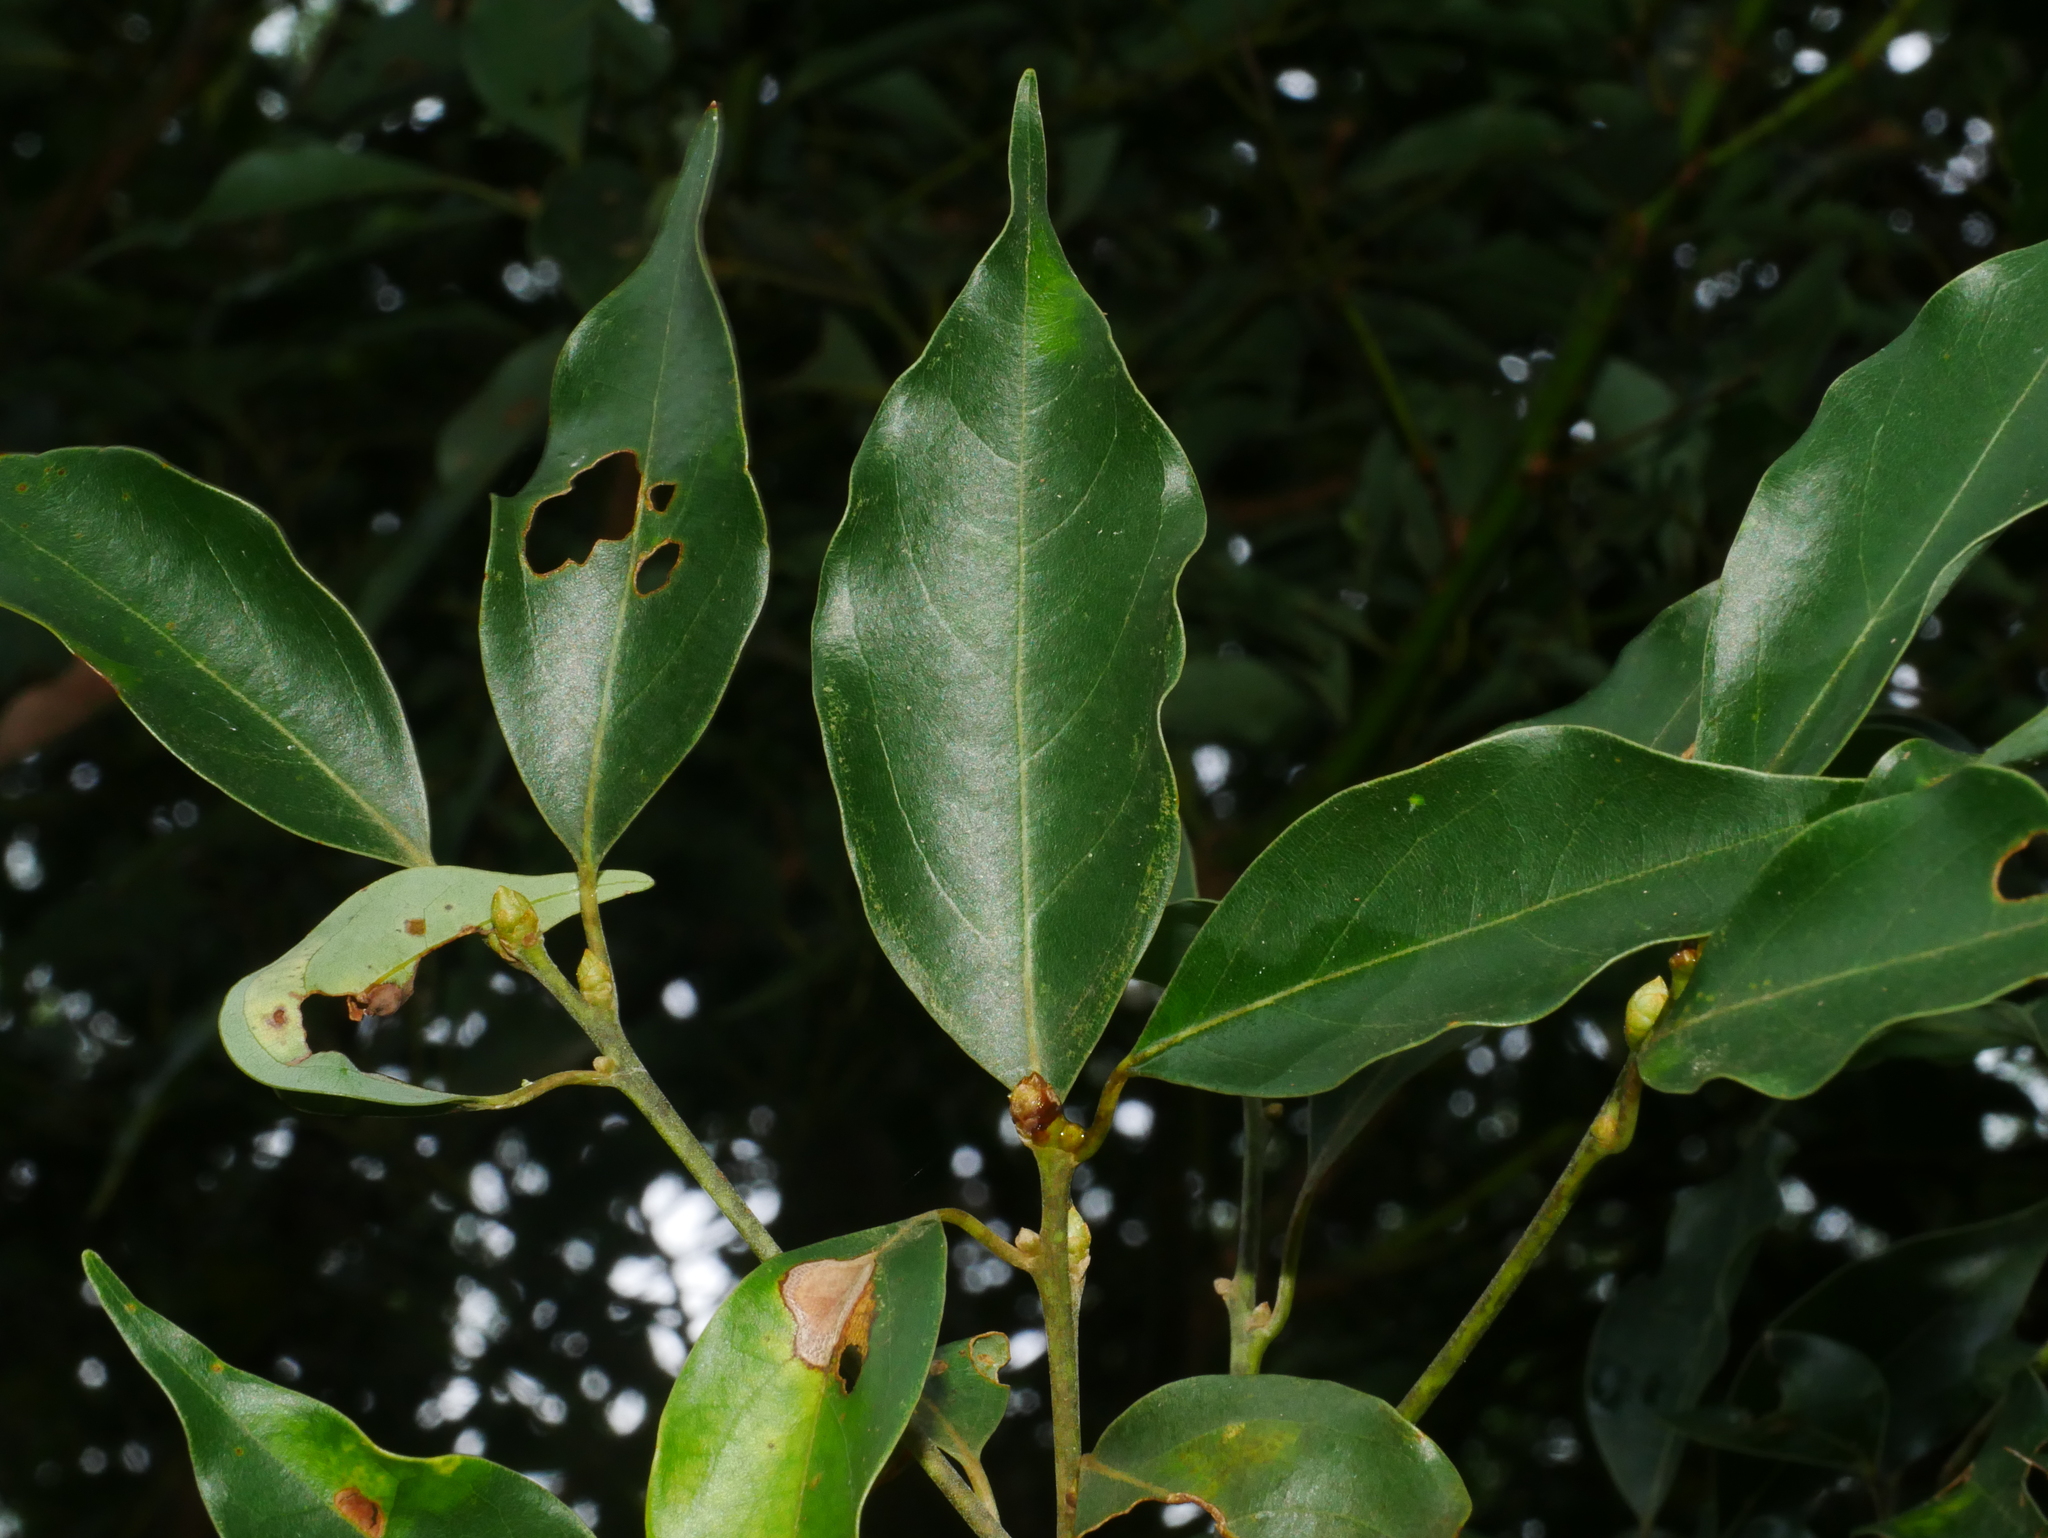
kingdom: Plantae
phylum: Tracheophyta
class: Magnoliopsida
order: Laurales
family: Lauraceae
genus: Cinnamomum
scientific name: Cinnamomum philippinense
